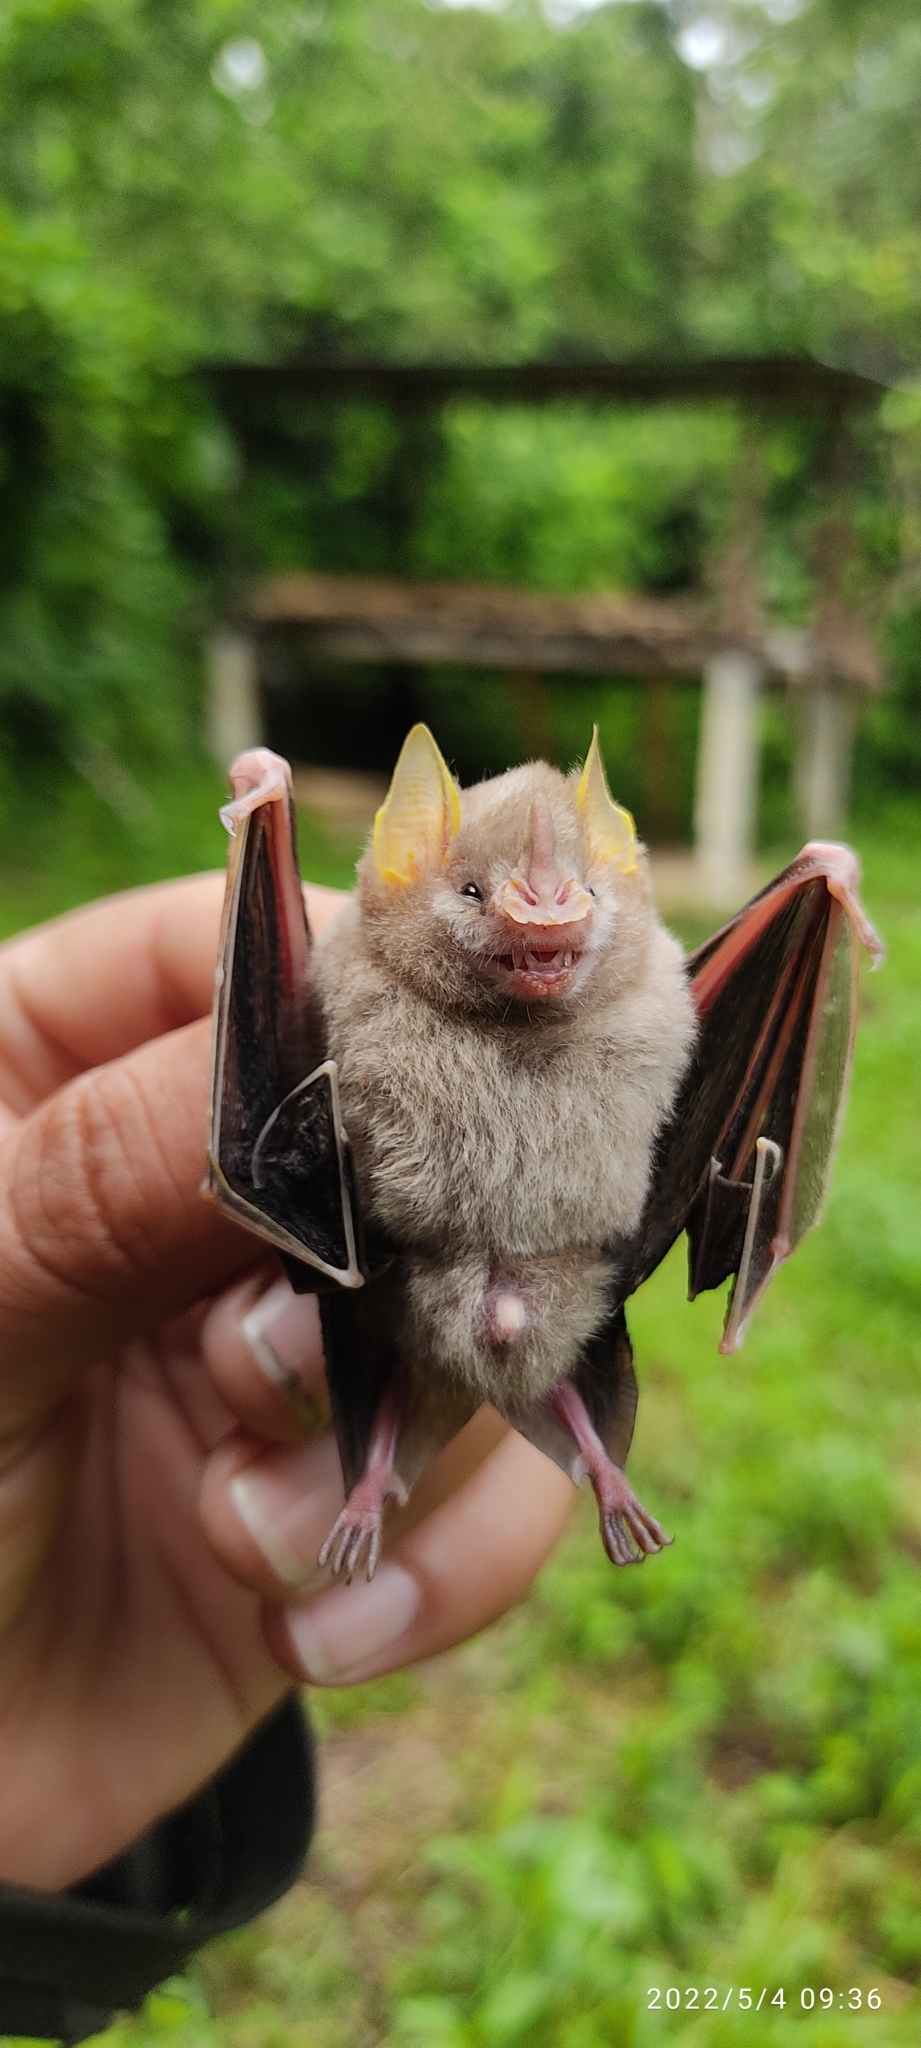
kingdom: Animalia
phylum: Chordata
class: Mammalia
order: Chiroptera
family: Phyllostomidae
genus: Mesophylla
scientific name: Mesophylla macconnelli
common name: Macconnell's bat
